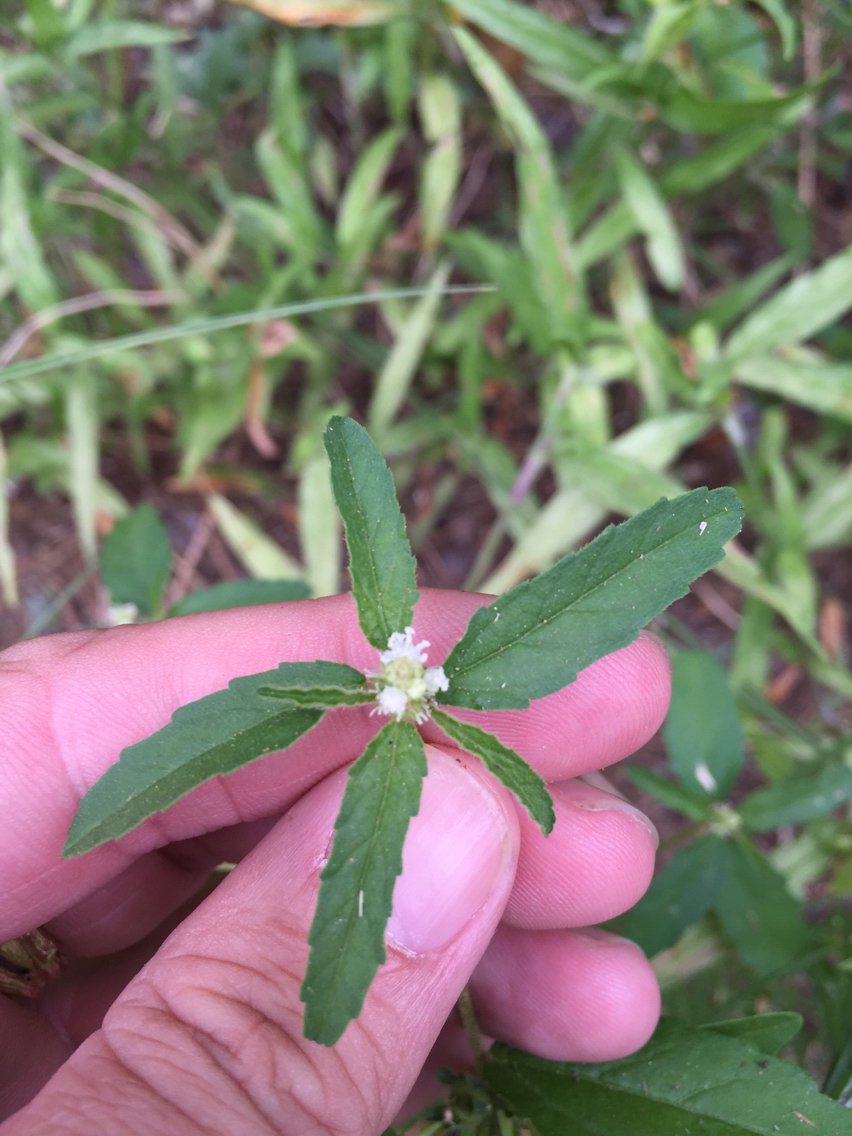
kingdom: Plantae
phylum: Tracheophyta
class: Magnoliopsida
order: Malpighiales
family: Euphorbiaceae
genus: Croton
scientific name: Croton glandulosus
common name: Tropic croton
